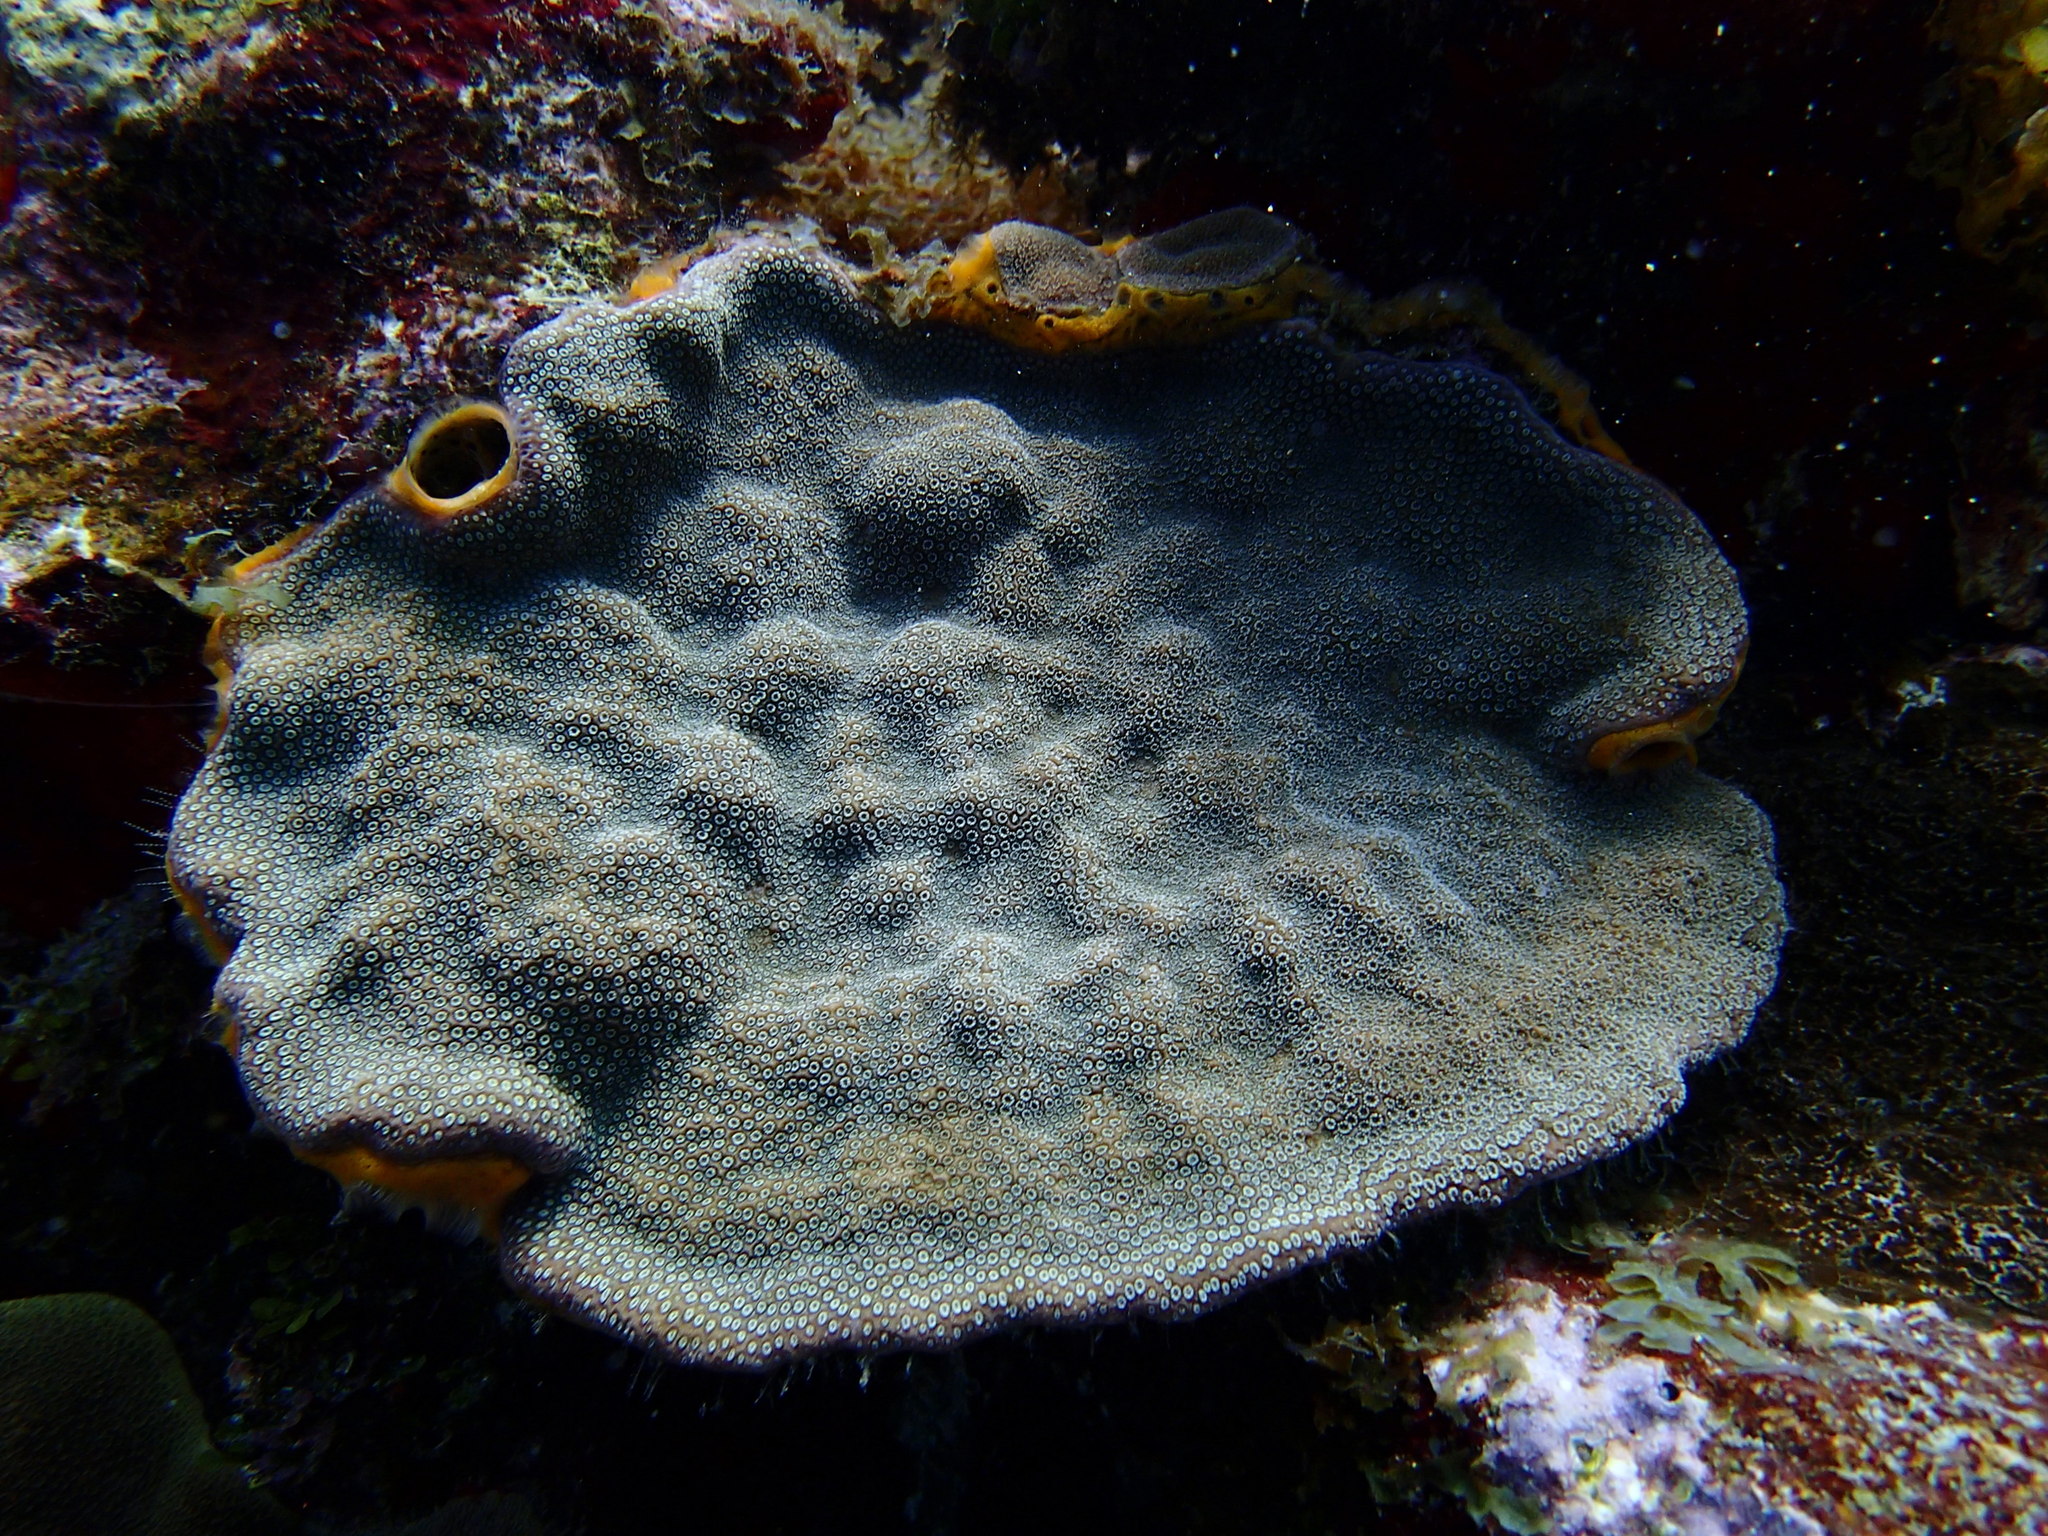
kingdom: Animalia
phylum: Cnidaria
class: Anthozoa
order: Scleractinia
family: Poritidae
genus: Porites
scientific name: Porites astreoides
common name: Mustard hill coral
